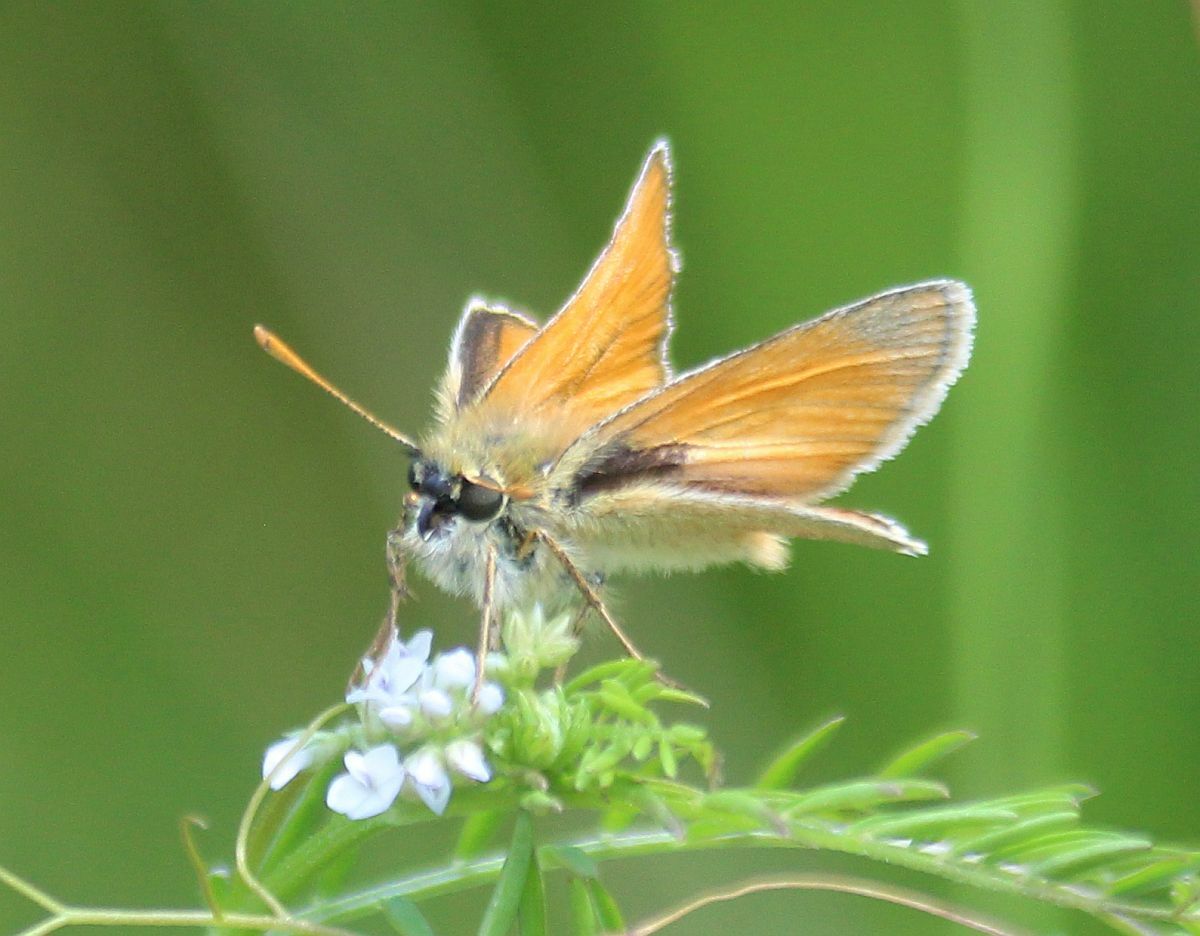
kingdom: Animalia
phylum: Arthropoda
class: Insecta
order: Lepidoptera
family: Hesperiidae
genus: Thymelicus
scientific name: Thymelicus sylvestris
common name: Small skipper
